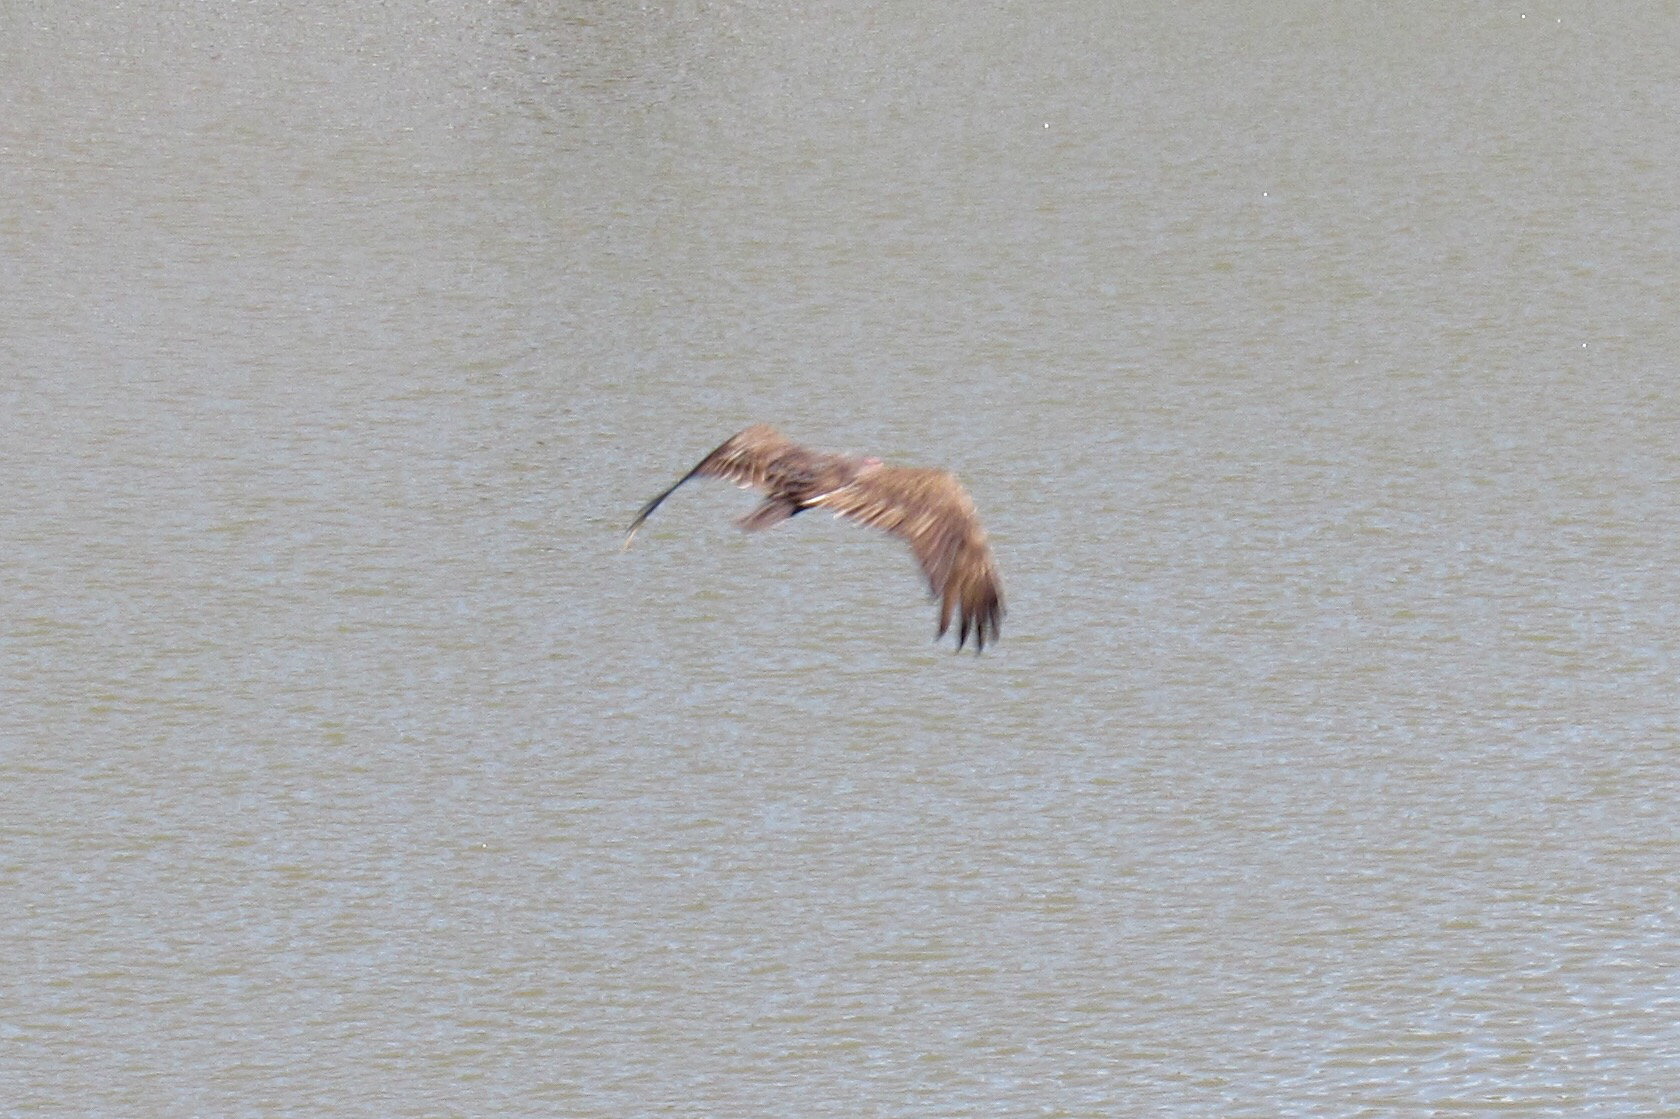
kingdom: Animalia
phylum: Chordata
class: Aves
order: Accipitriformes
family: Cathartidae
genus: Cathartes
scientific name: Cathartes aura
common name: Turkey vulture
